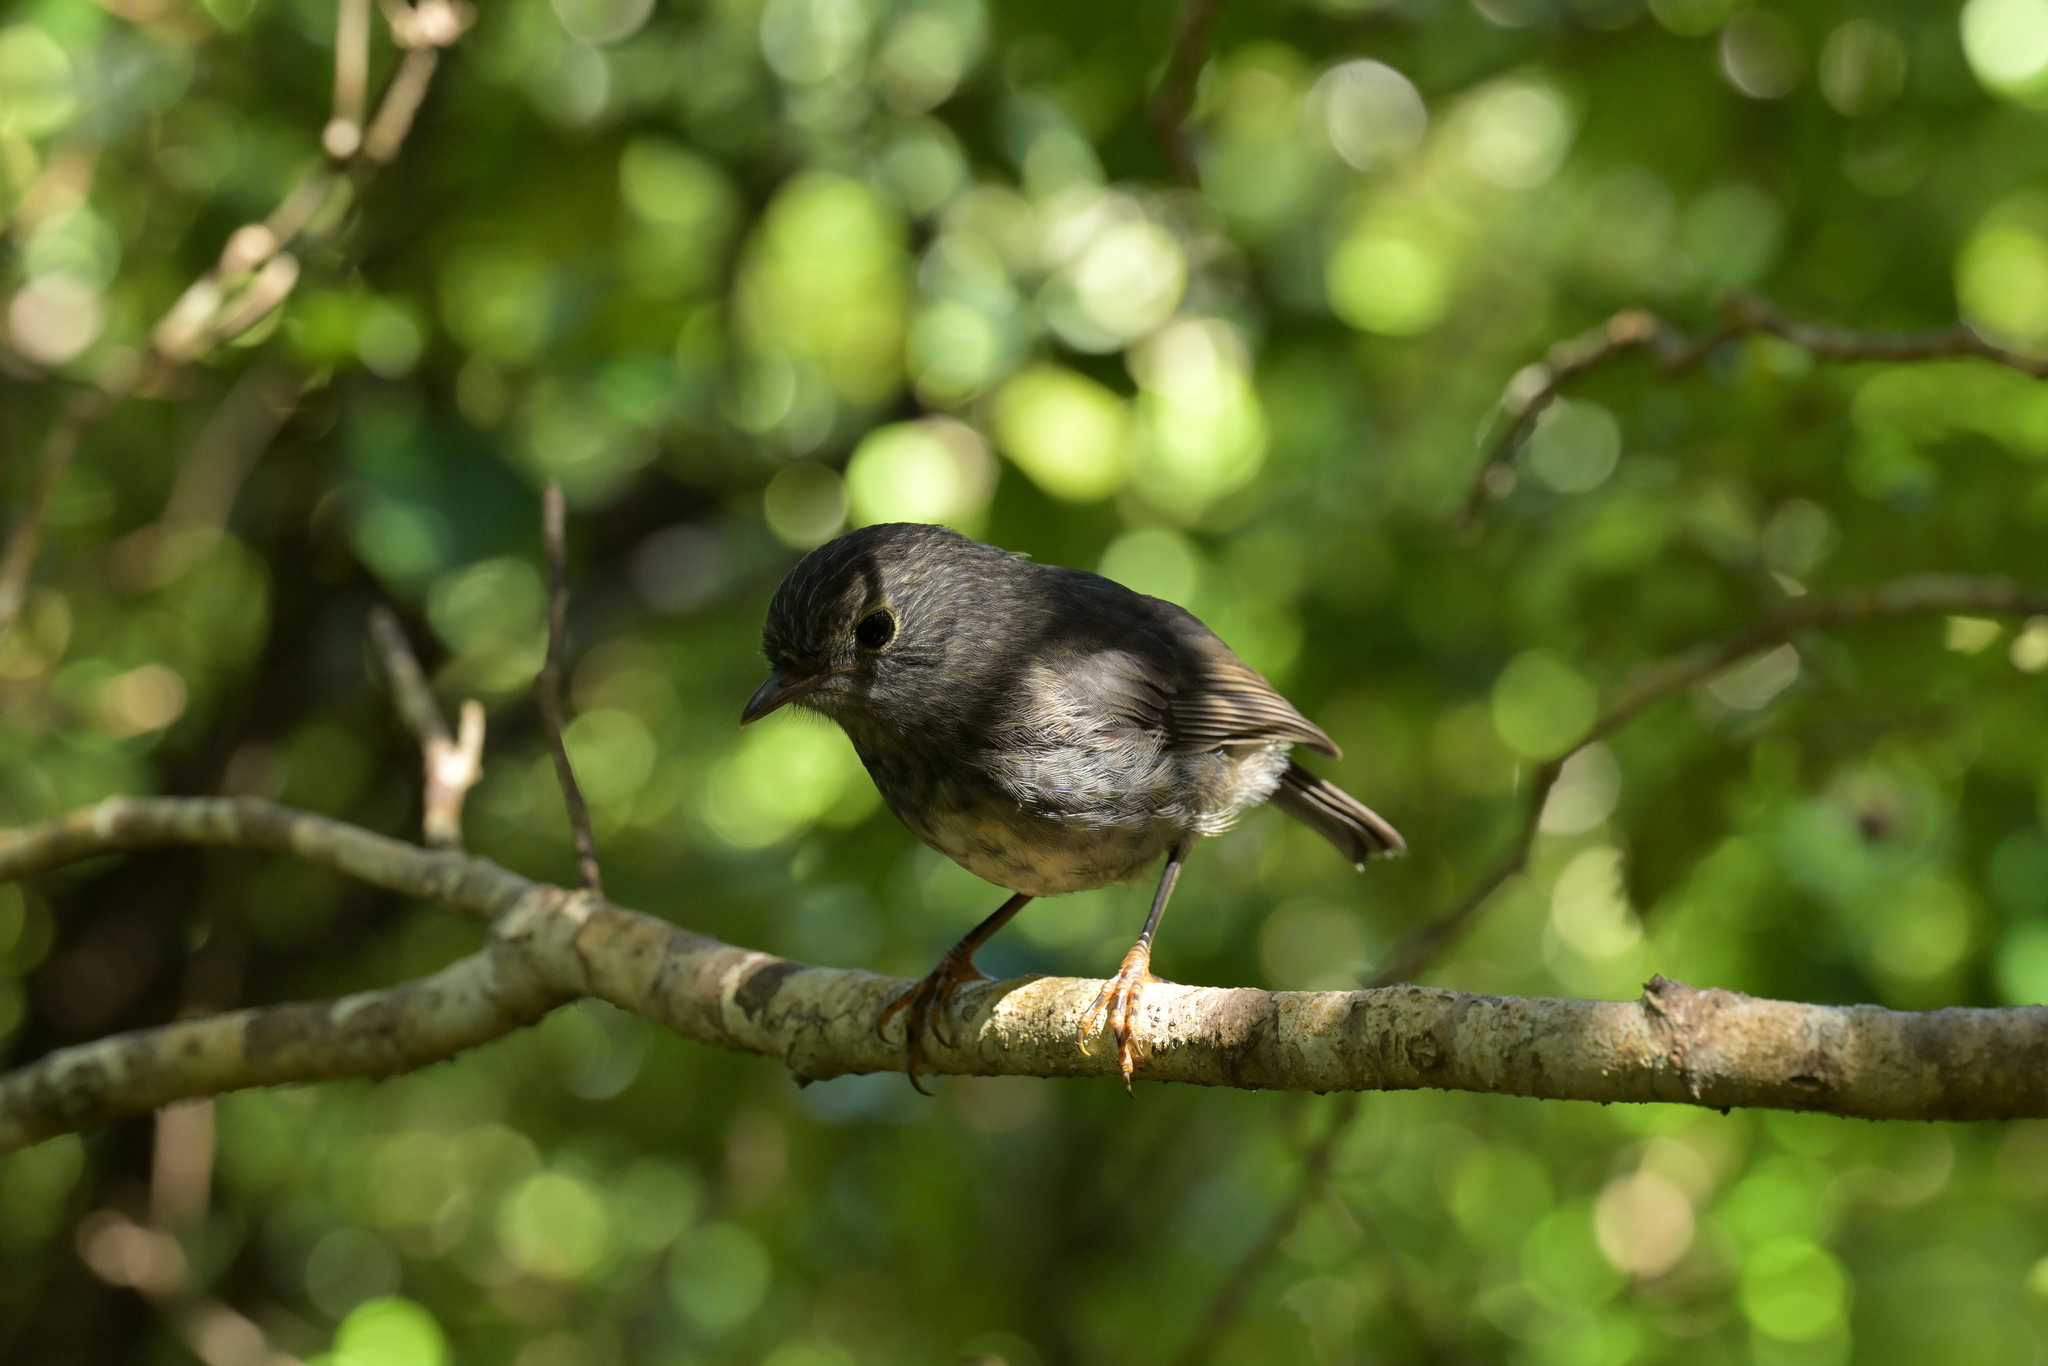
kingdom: Animalia
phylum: Chordata
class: Aves
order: Passeriformes
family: Petroicidae
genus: Petroica
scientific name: Petroica australis
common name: New zealand robin
